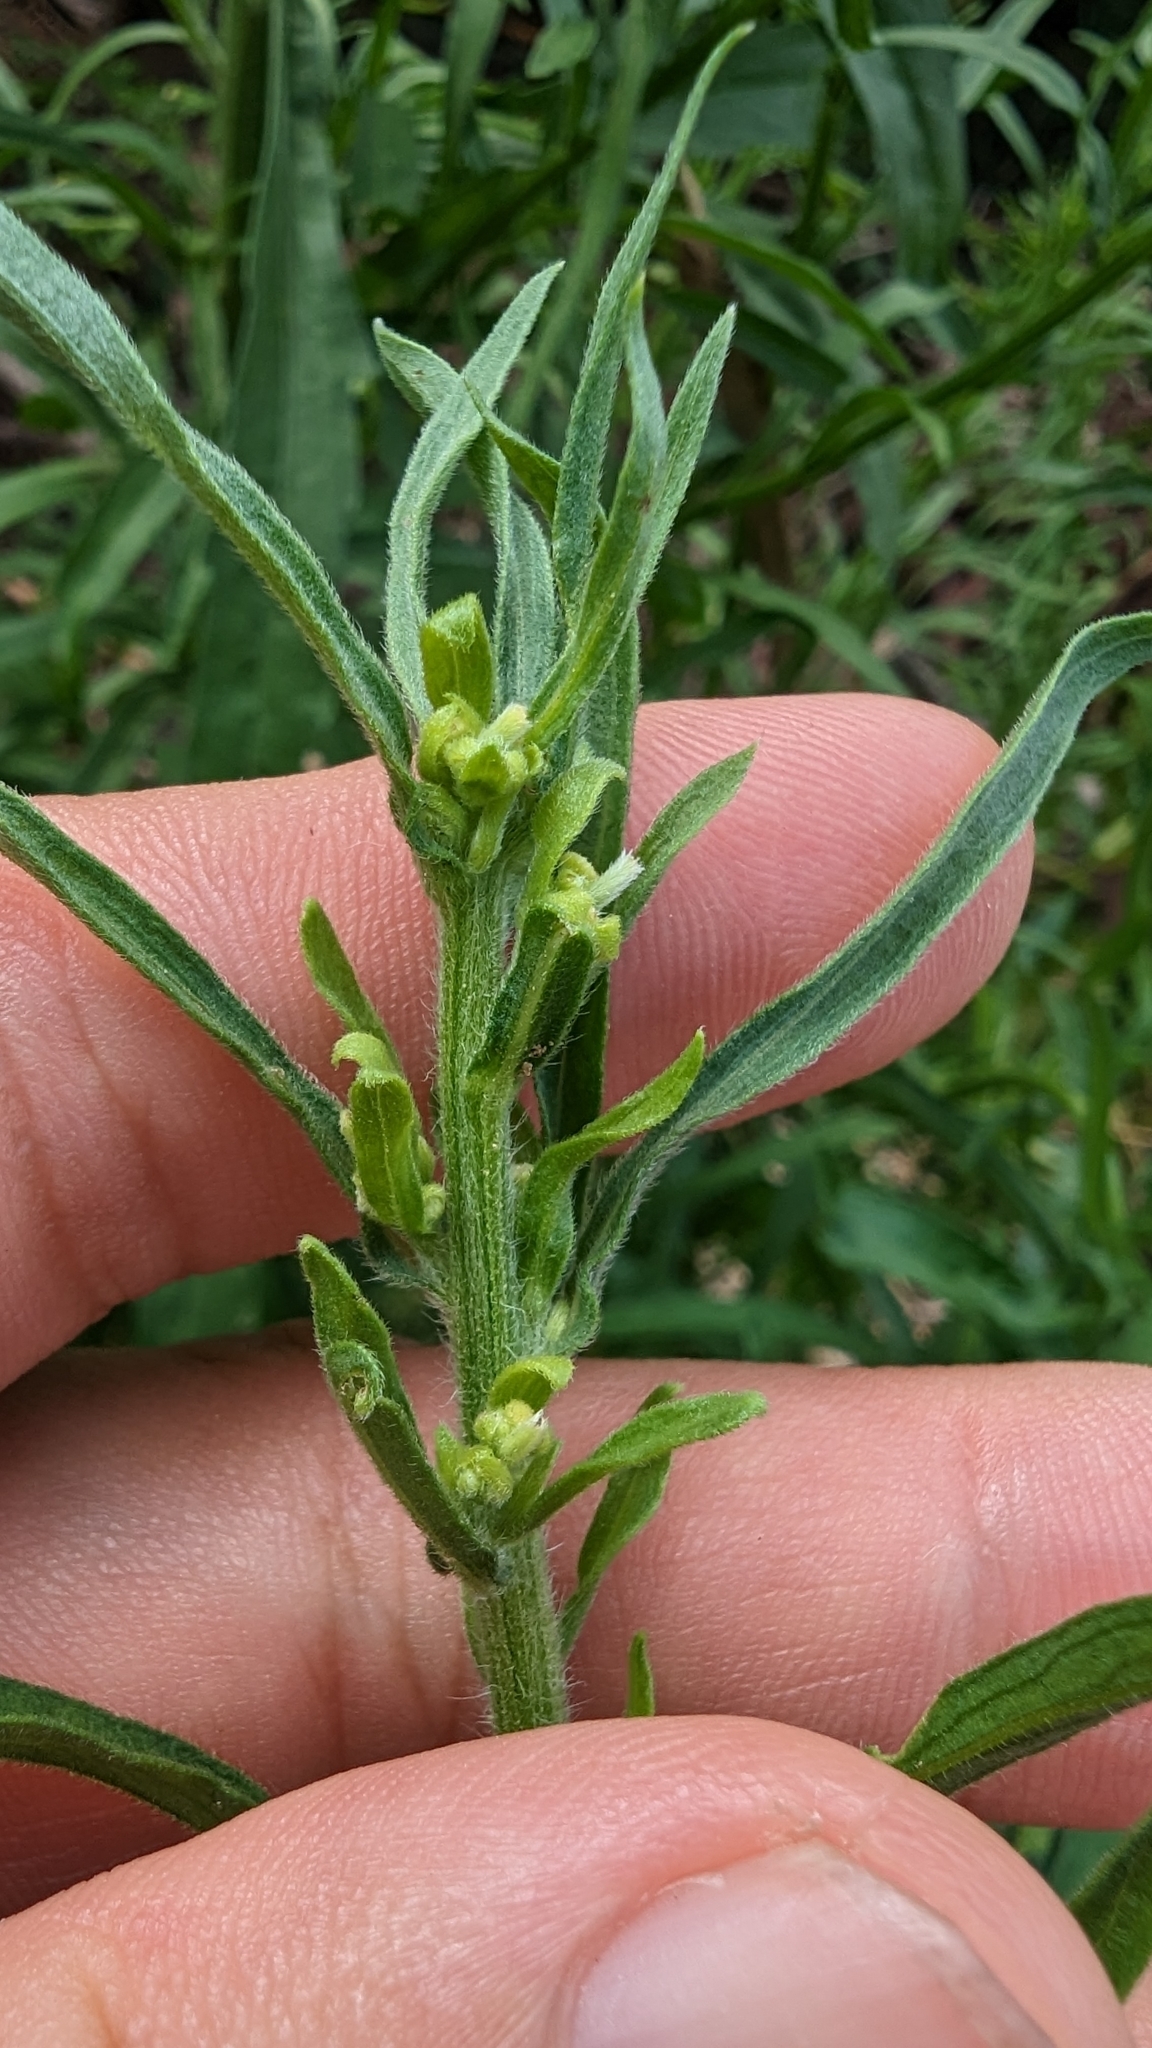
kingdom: Plantae
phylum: Tracheophyta
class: Magnoliopsida
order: Asterales
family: Asteraceae
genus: Erigeron
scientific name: Erigeron canadensis
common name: Canadian fleabane
